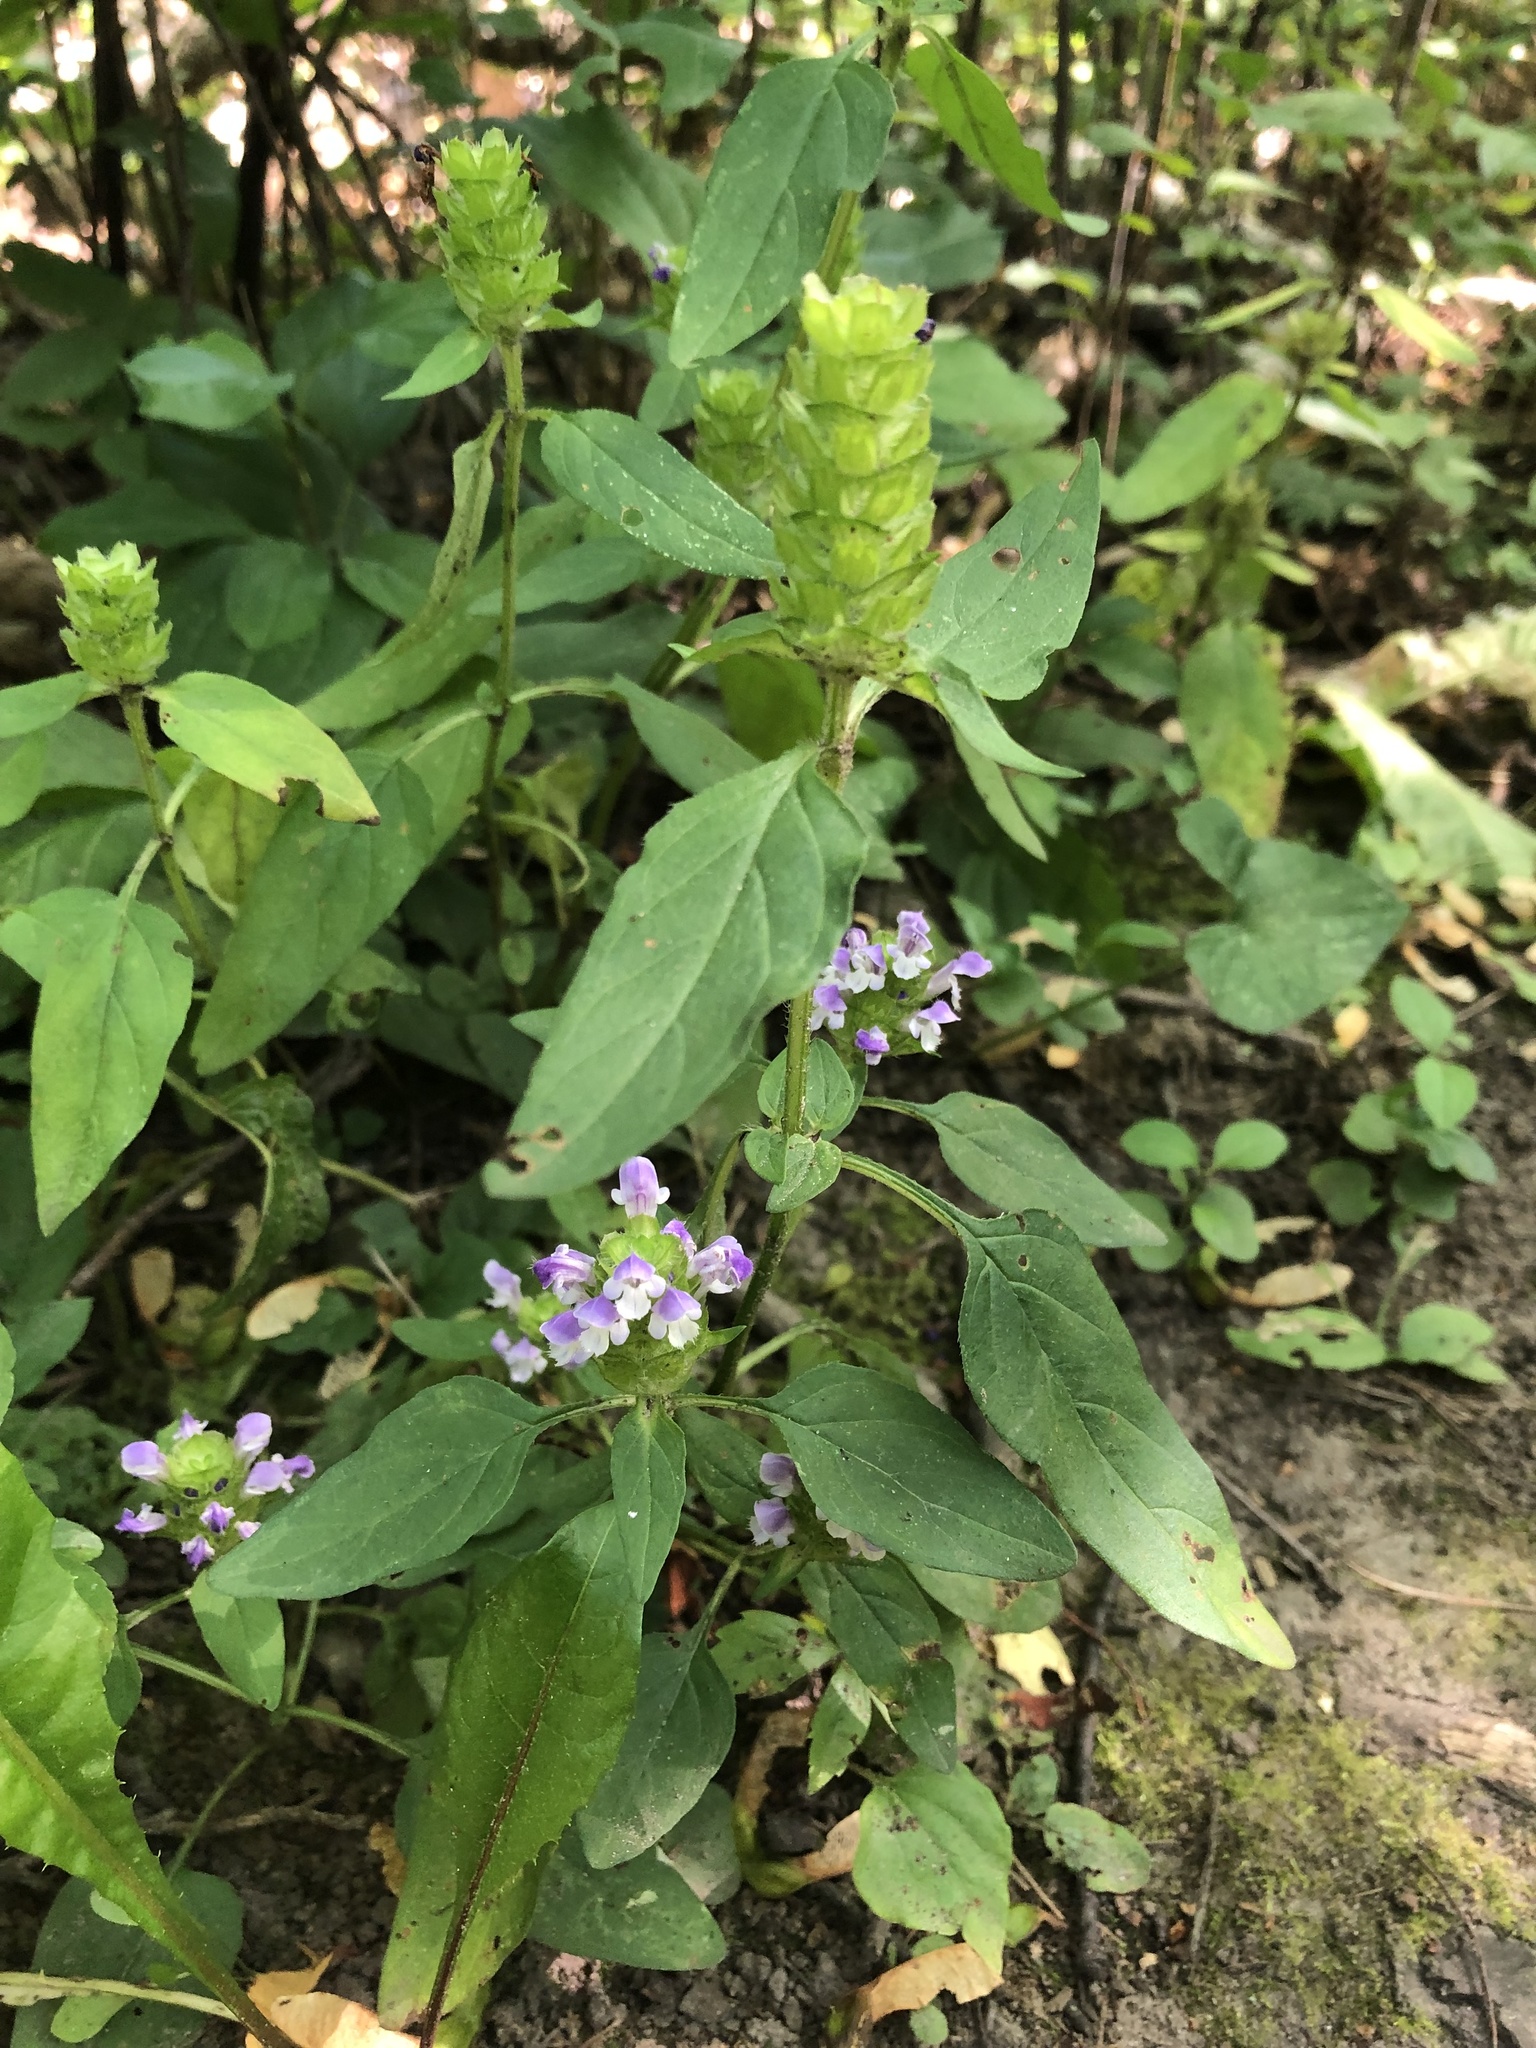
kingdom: Plantae
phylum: Tracheophyta
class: Magnoliopsida
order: Lamiales
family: Lamiaceae
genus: Prunella
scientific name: Prunella vulgaris
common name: Heal-all
